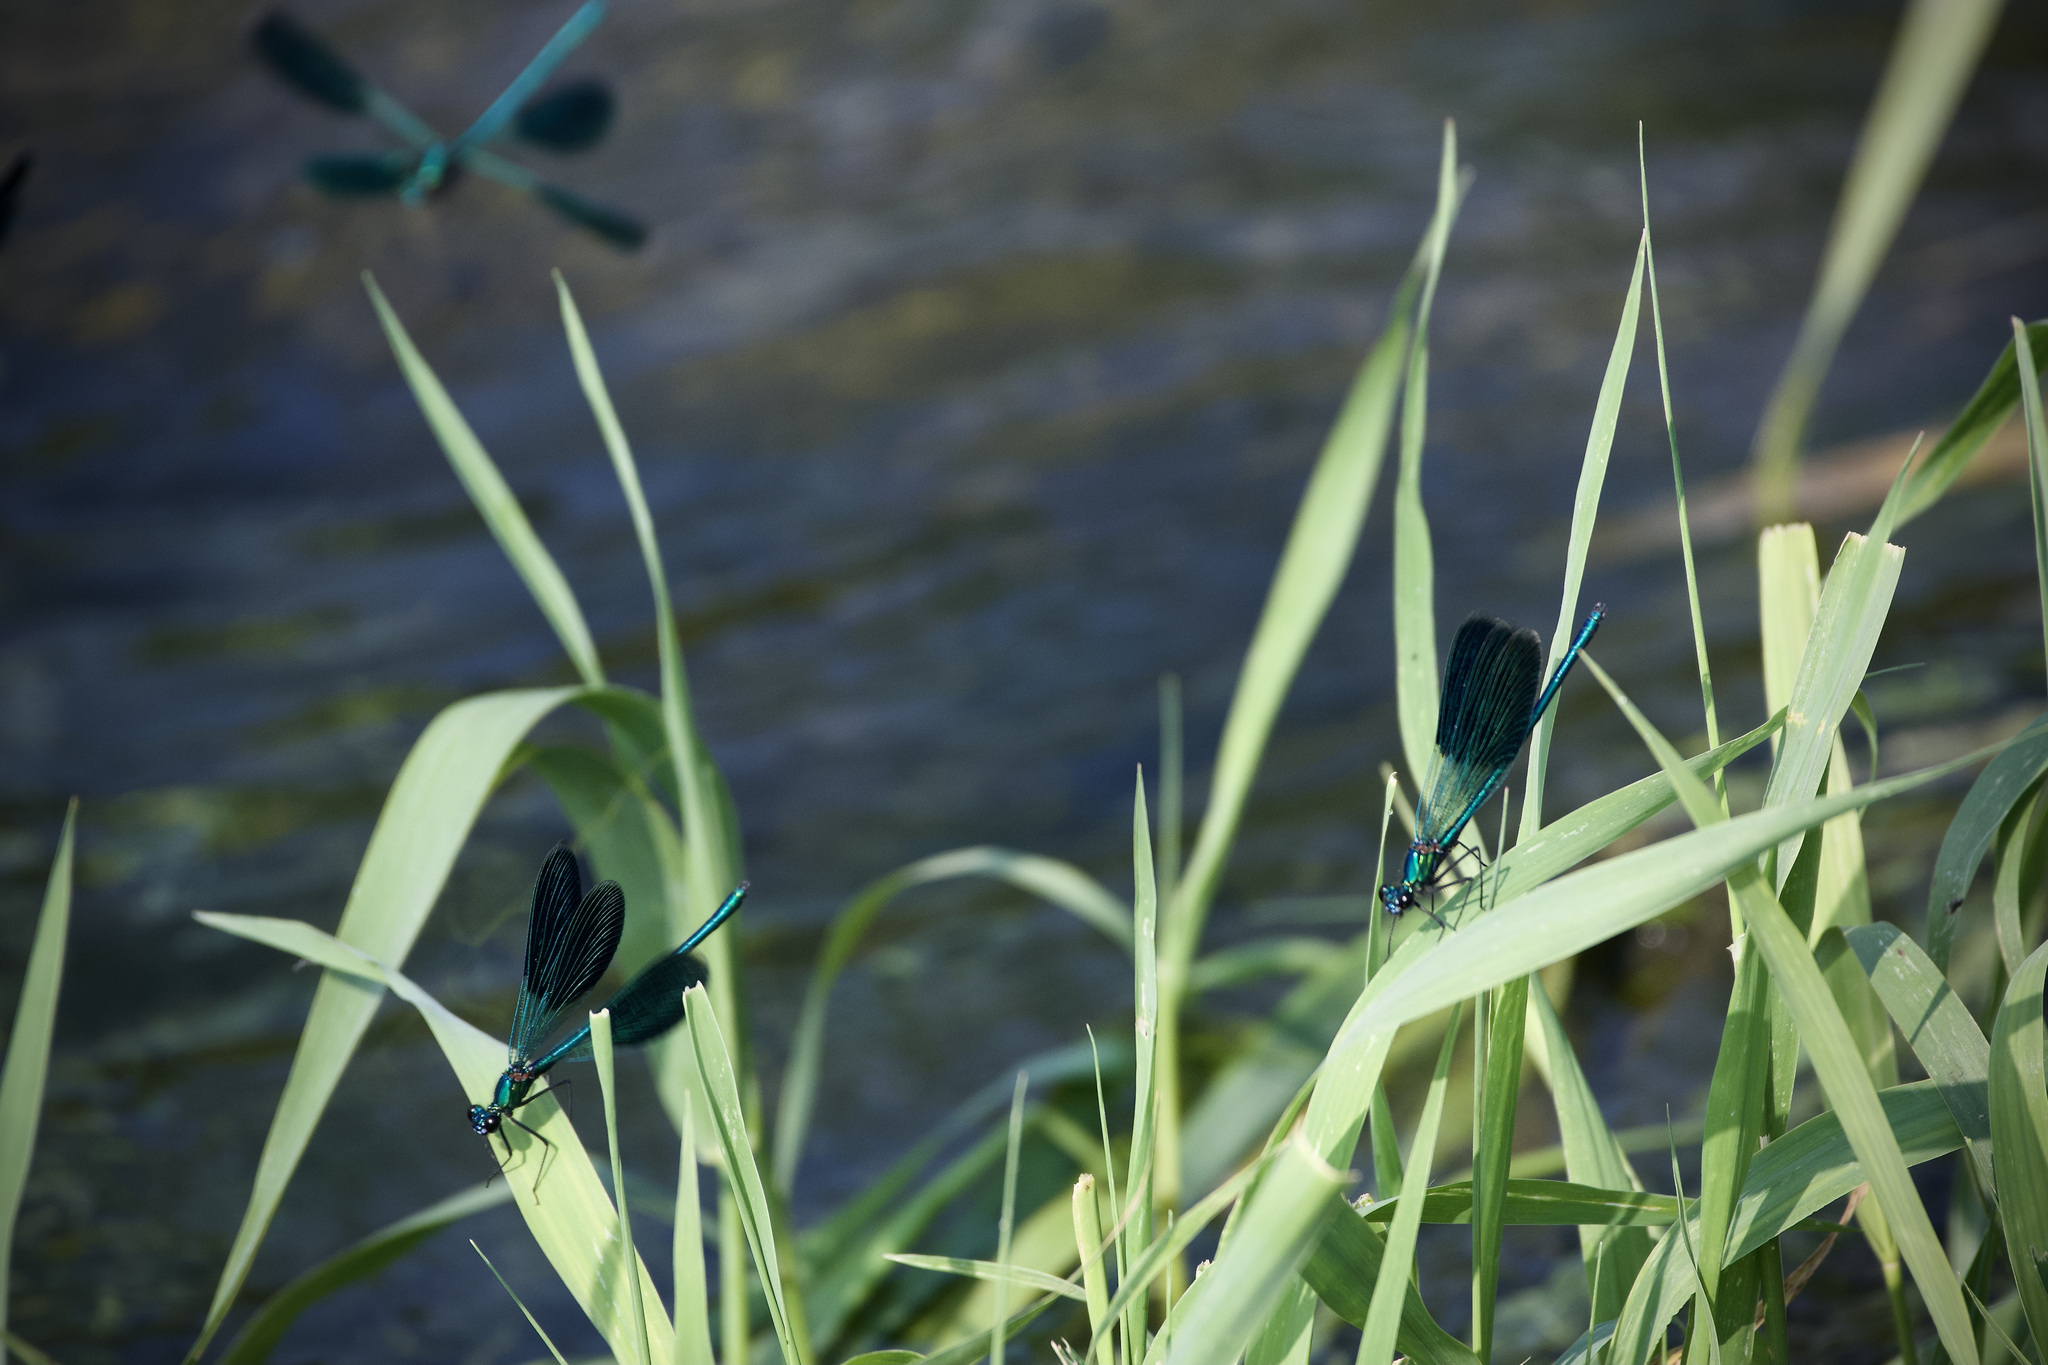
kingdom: Animalia
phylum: Arthropoda
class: Insecta
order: Odonata
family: Calopterygidae
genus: Calopteryx
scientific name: Calopteryx splendens
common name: Banded demoiselle
